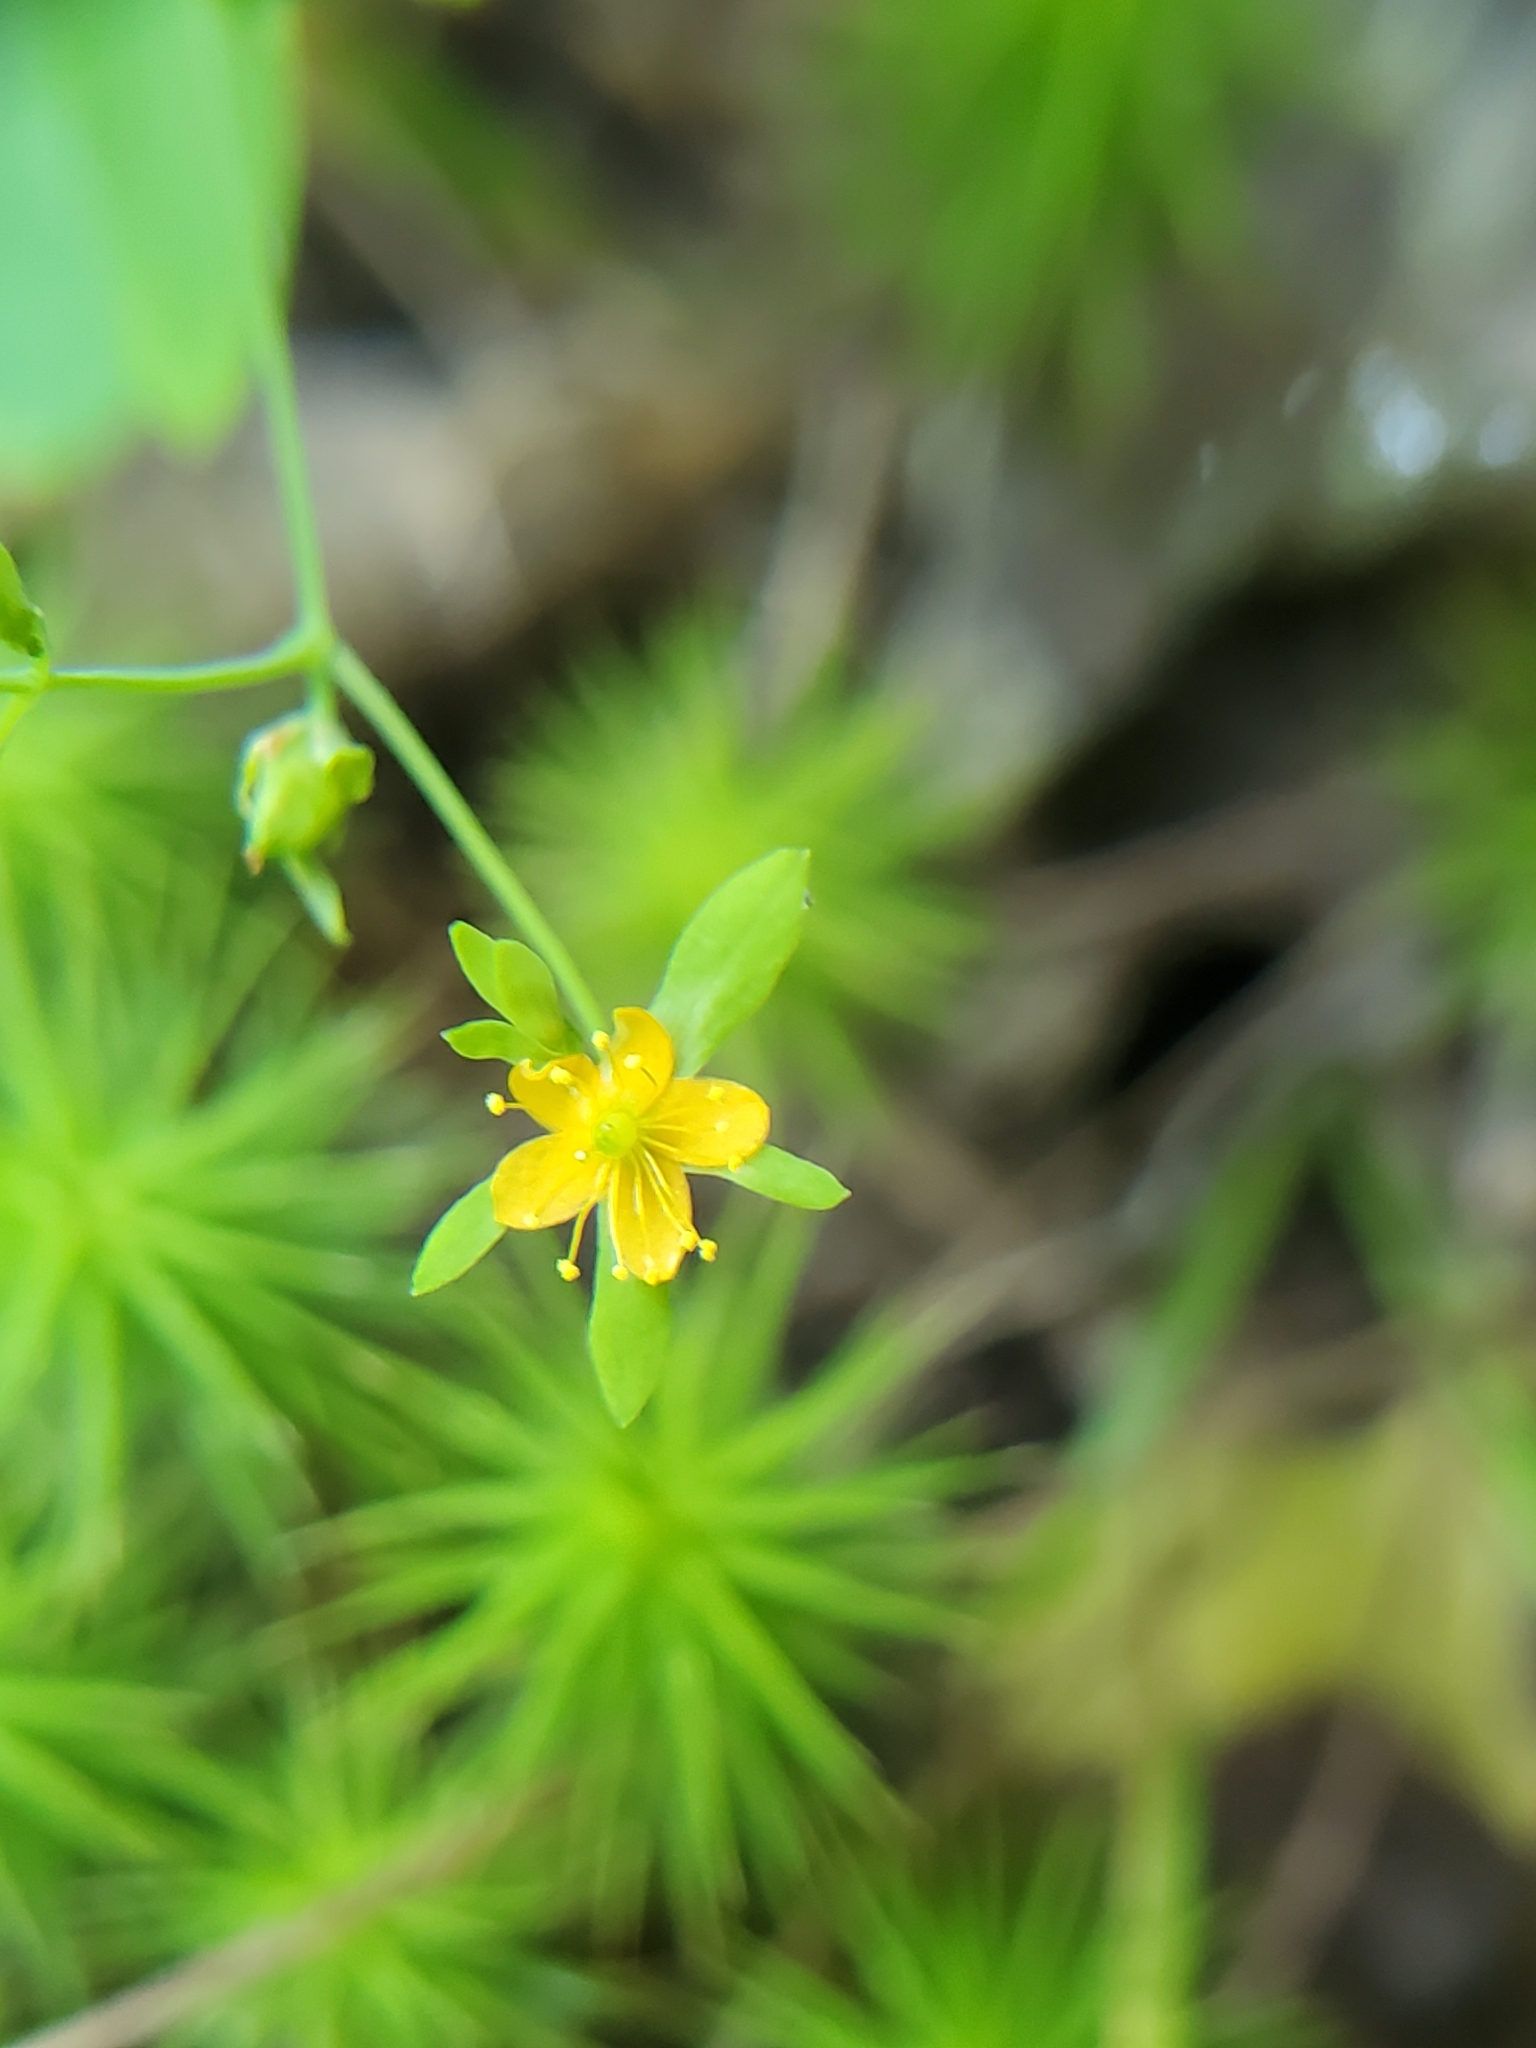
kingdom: Plantae
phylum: Tracheophyta
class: Magnoliopsida
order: Malpighiales
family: Hypericaceae
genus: Hypericum
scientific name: Hypericum mutilum
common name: Dwarf st. john's-wort
